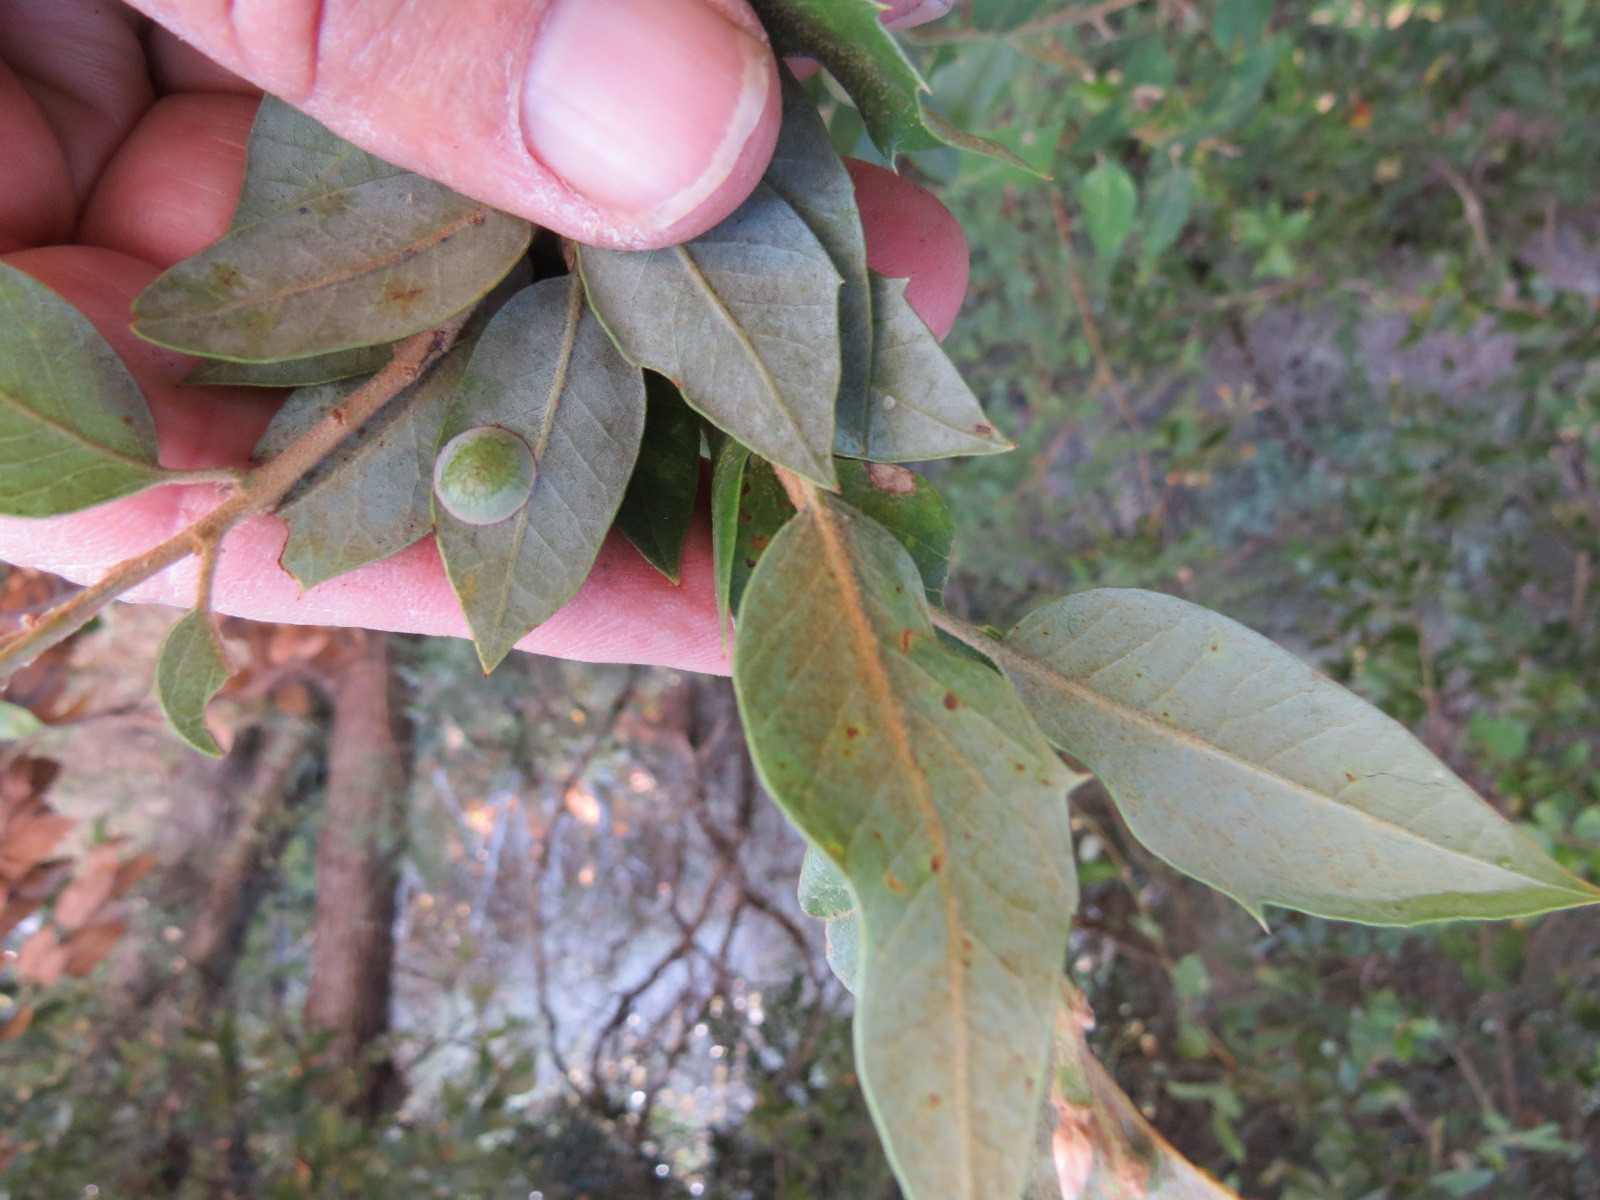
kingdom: Animalia
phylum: Arthropoda
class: Insecta
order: Hymenoptera
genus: Paracraspis
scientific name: Paracraspis
